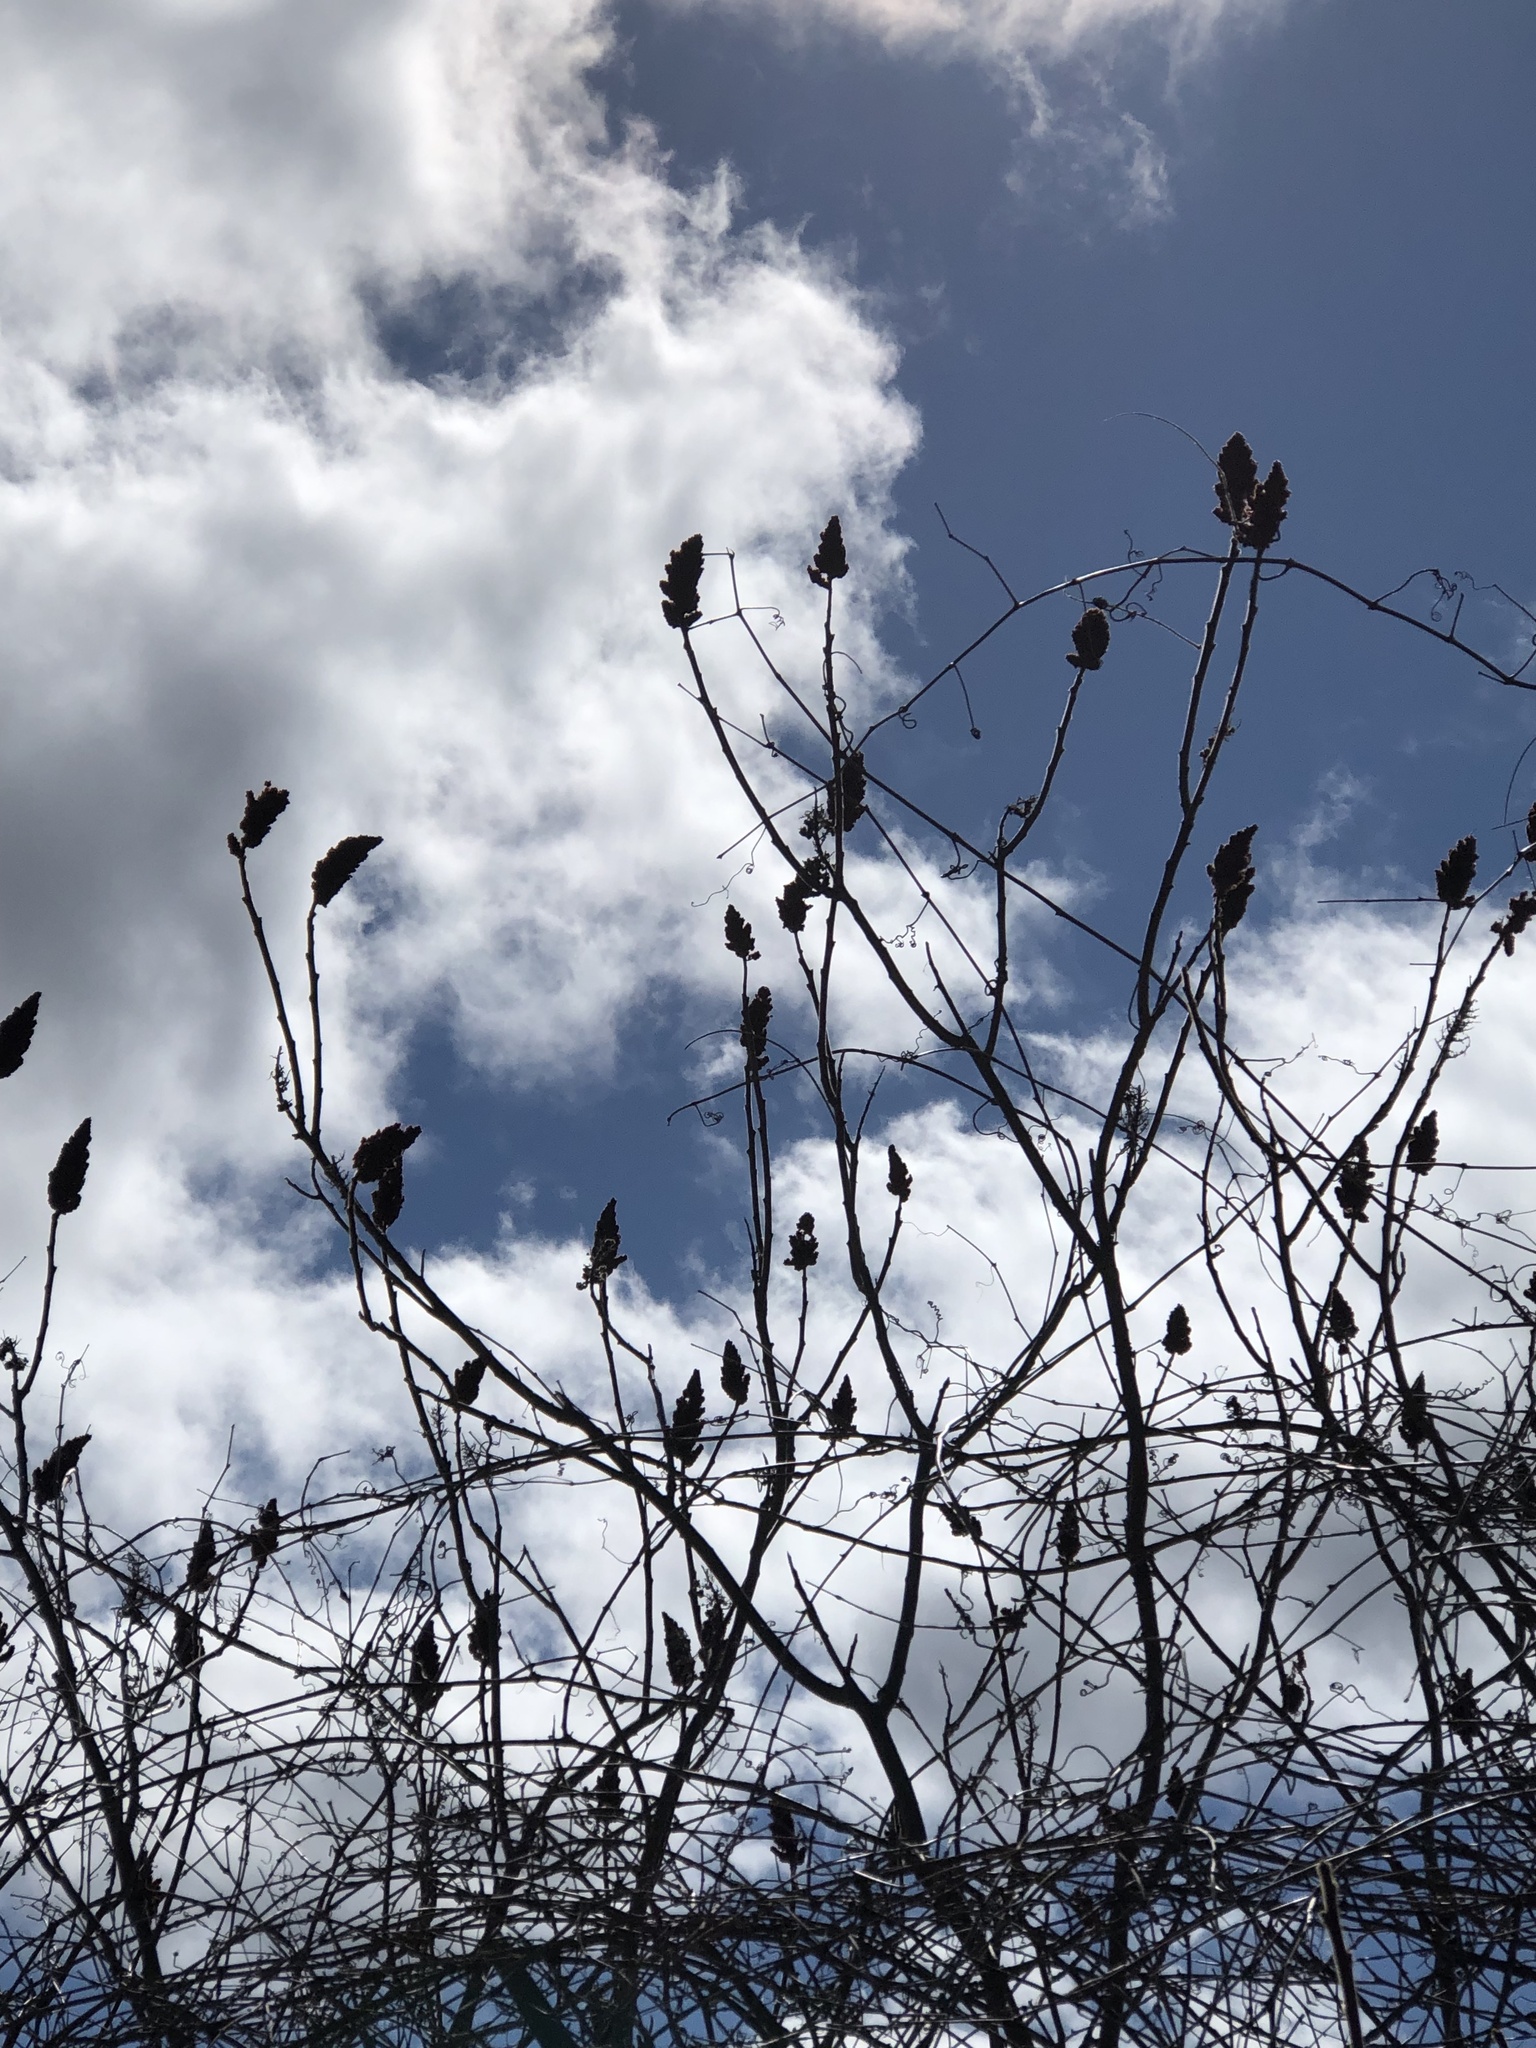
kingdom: Plantae
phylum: Tracheophyta
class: Magnoliopsida
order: Sapindales
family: Anacardiaceae
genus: Rhus
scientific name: Rhus typhina
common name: Staghorn sumac
